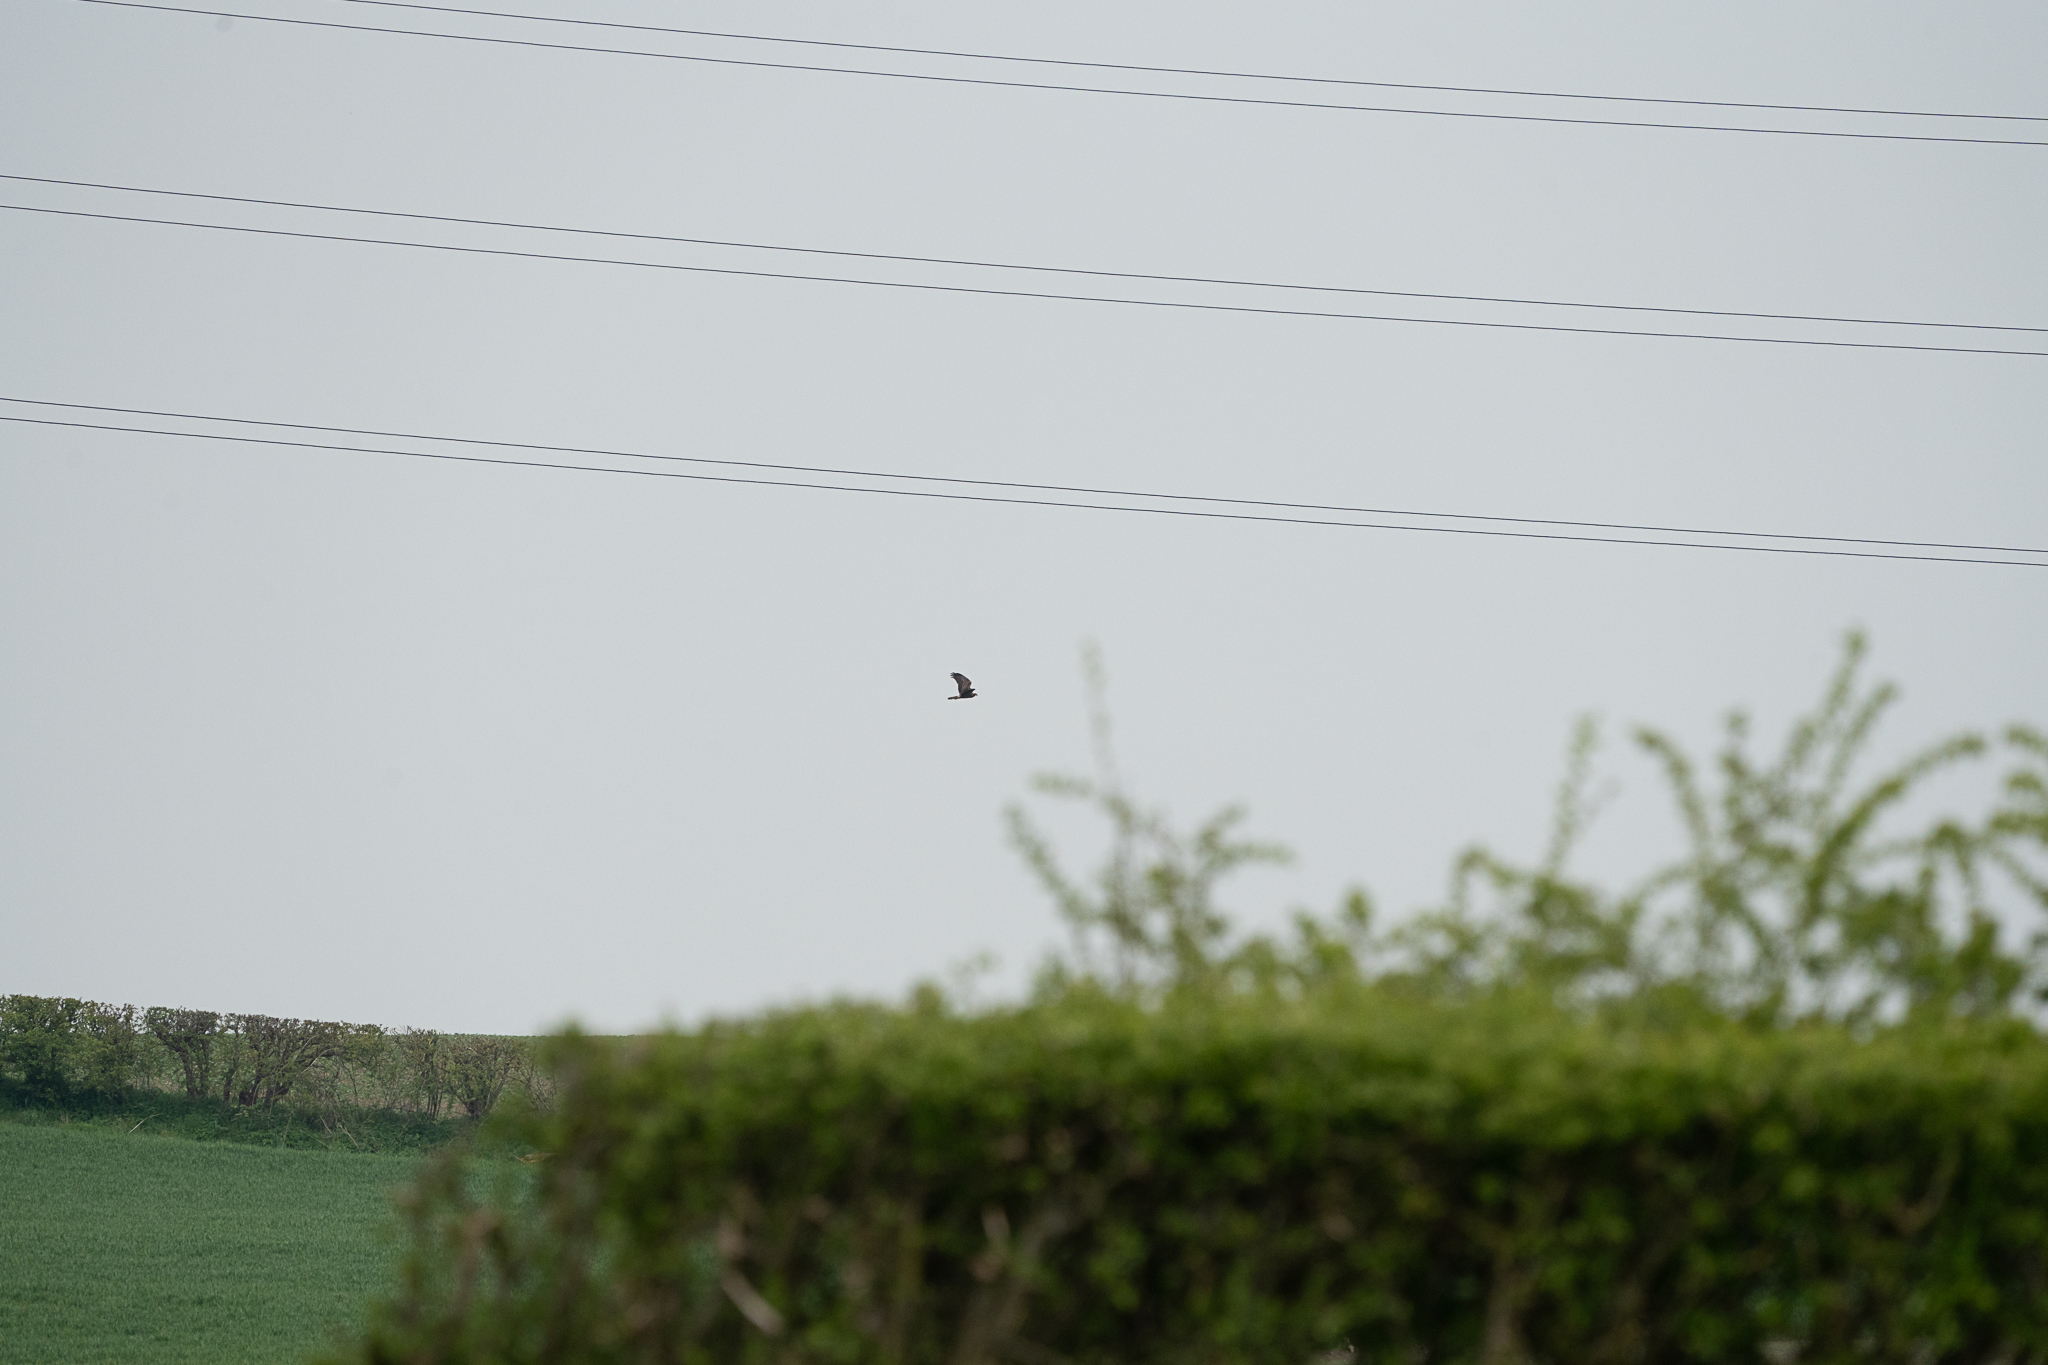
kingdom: Animalia
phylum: Chordata
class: Aves
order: Accipitriformes
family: Accipitridae
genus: Circus
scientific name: Circus aeruginosus
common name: Western marsh harrier
